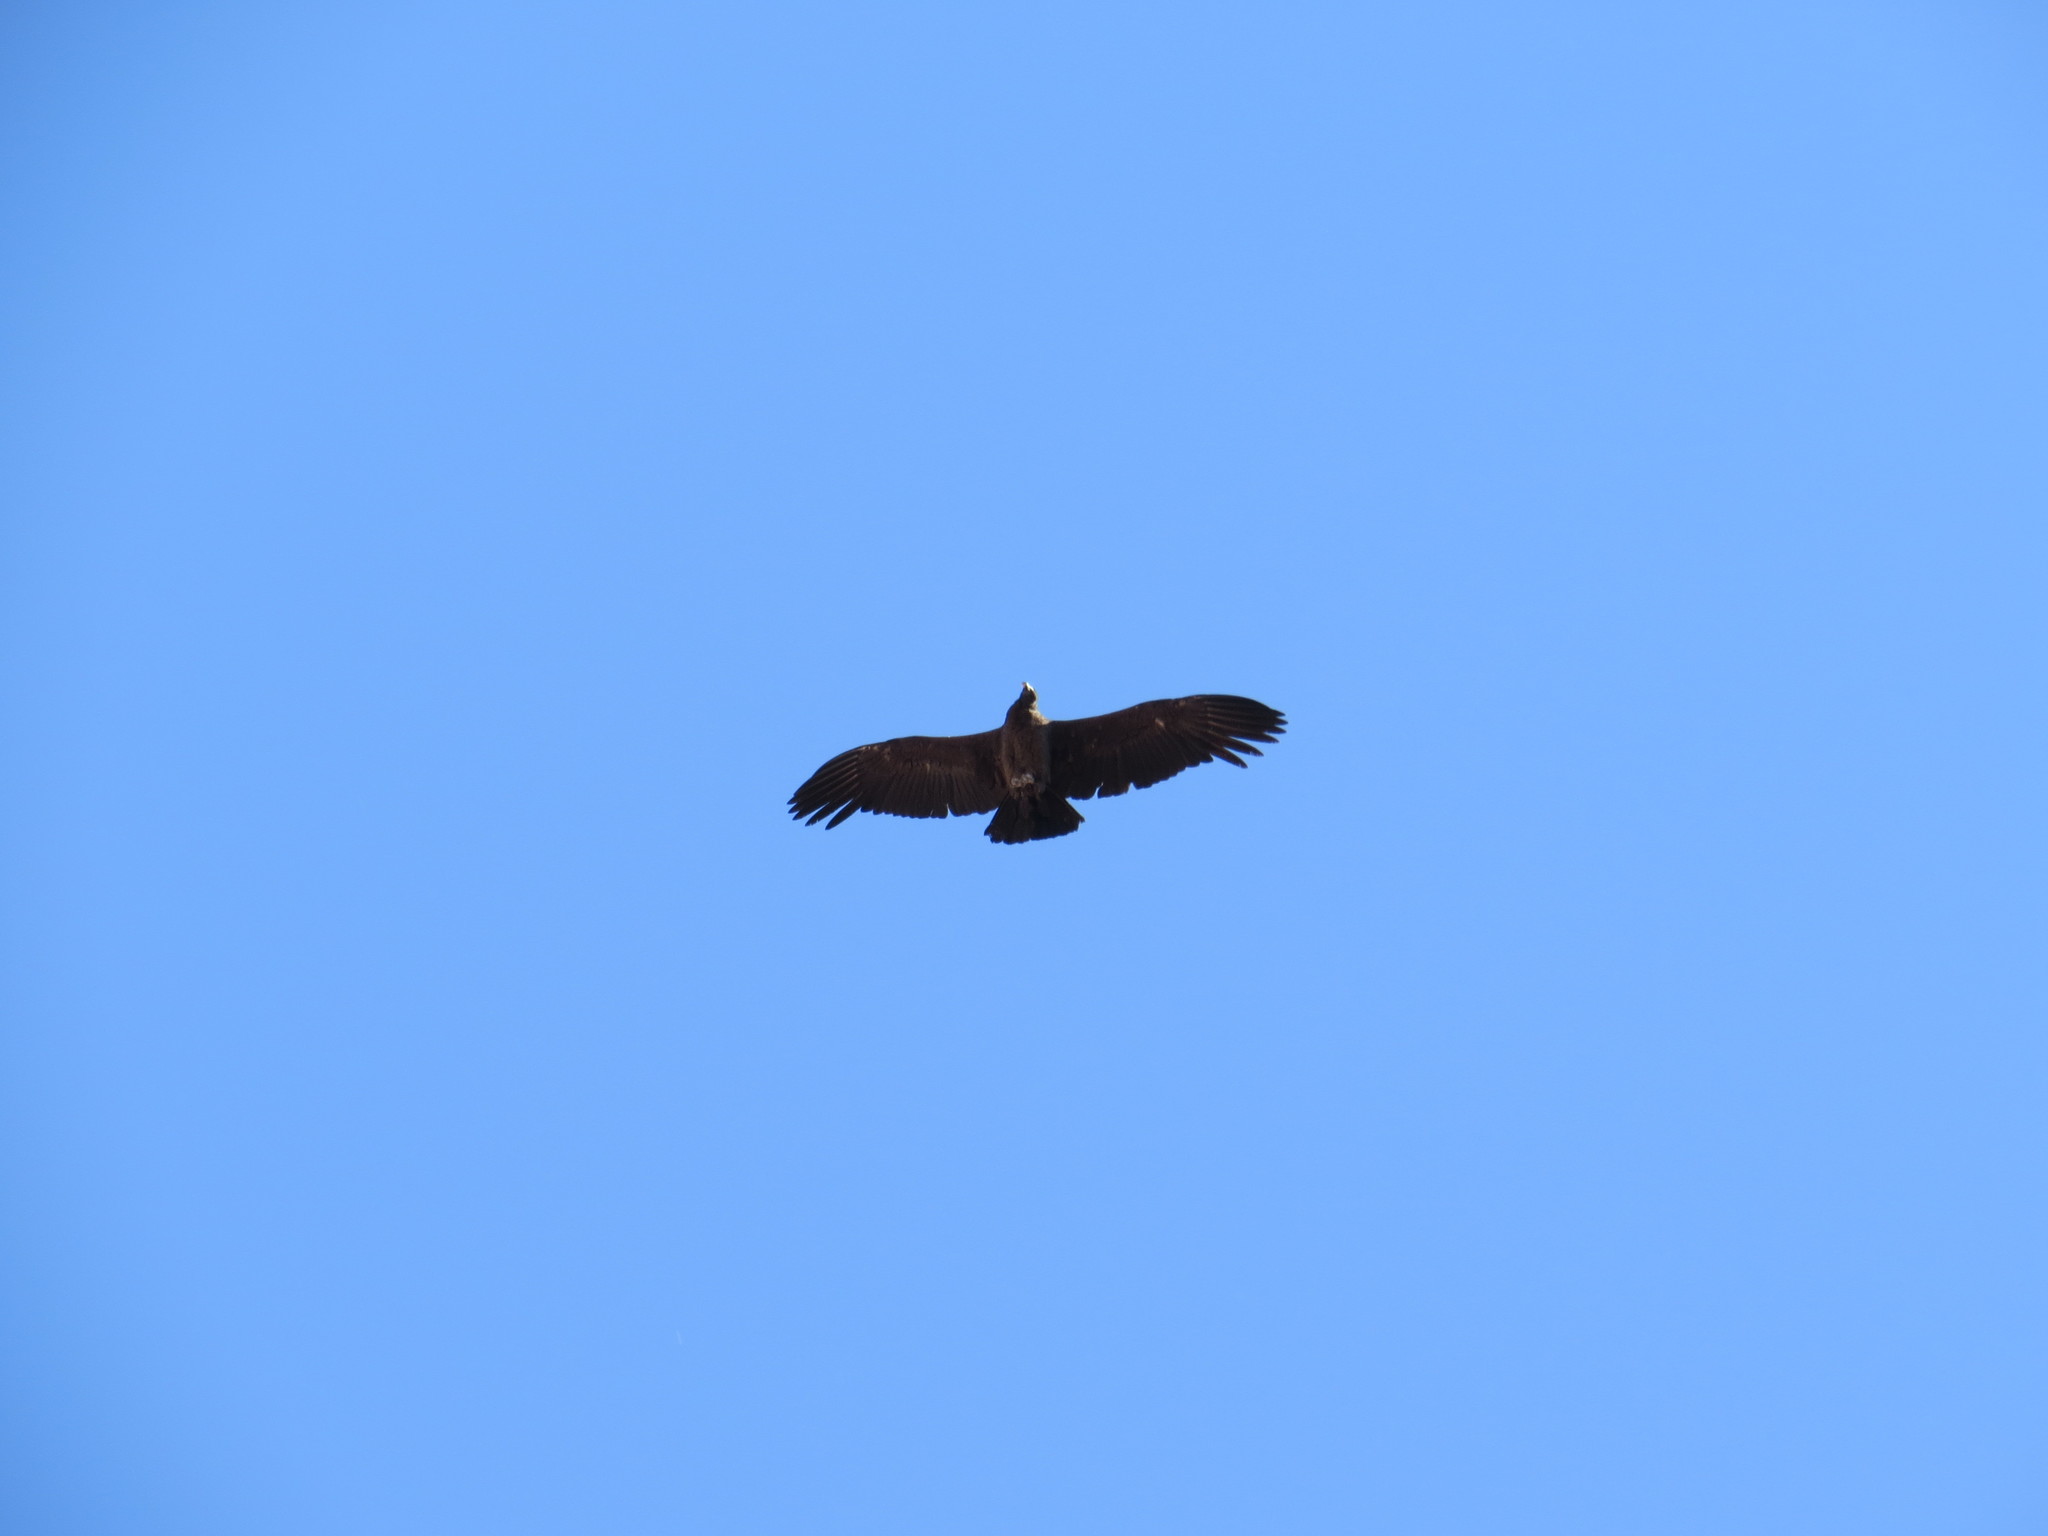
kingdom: Animalia
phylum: Chordata
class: Aves
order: Accipitriformes
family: Cathartidae
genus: Vultur
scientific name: Vultur gryphus
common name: Andean condor
